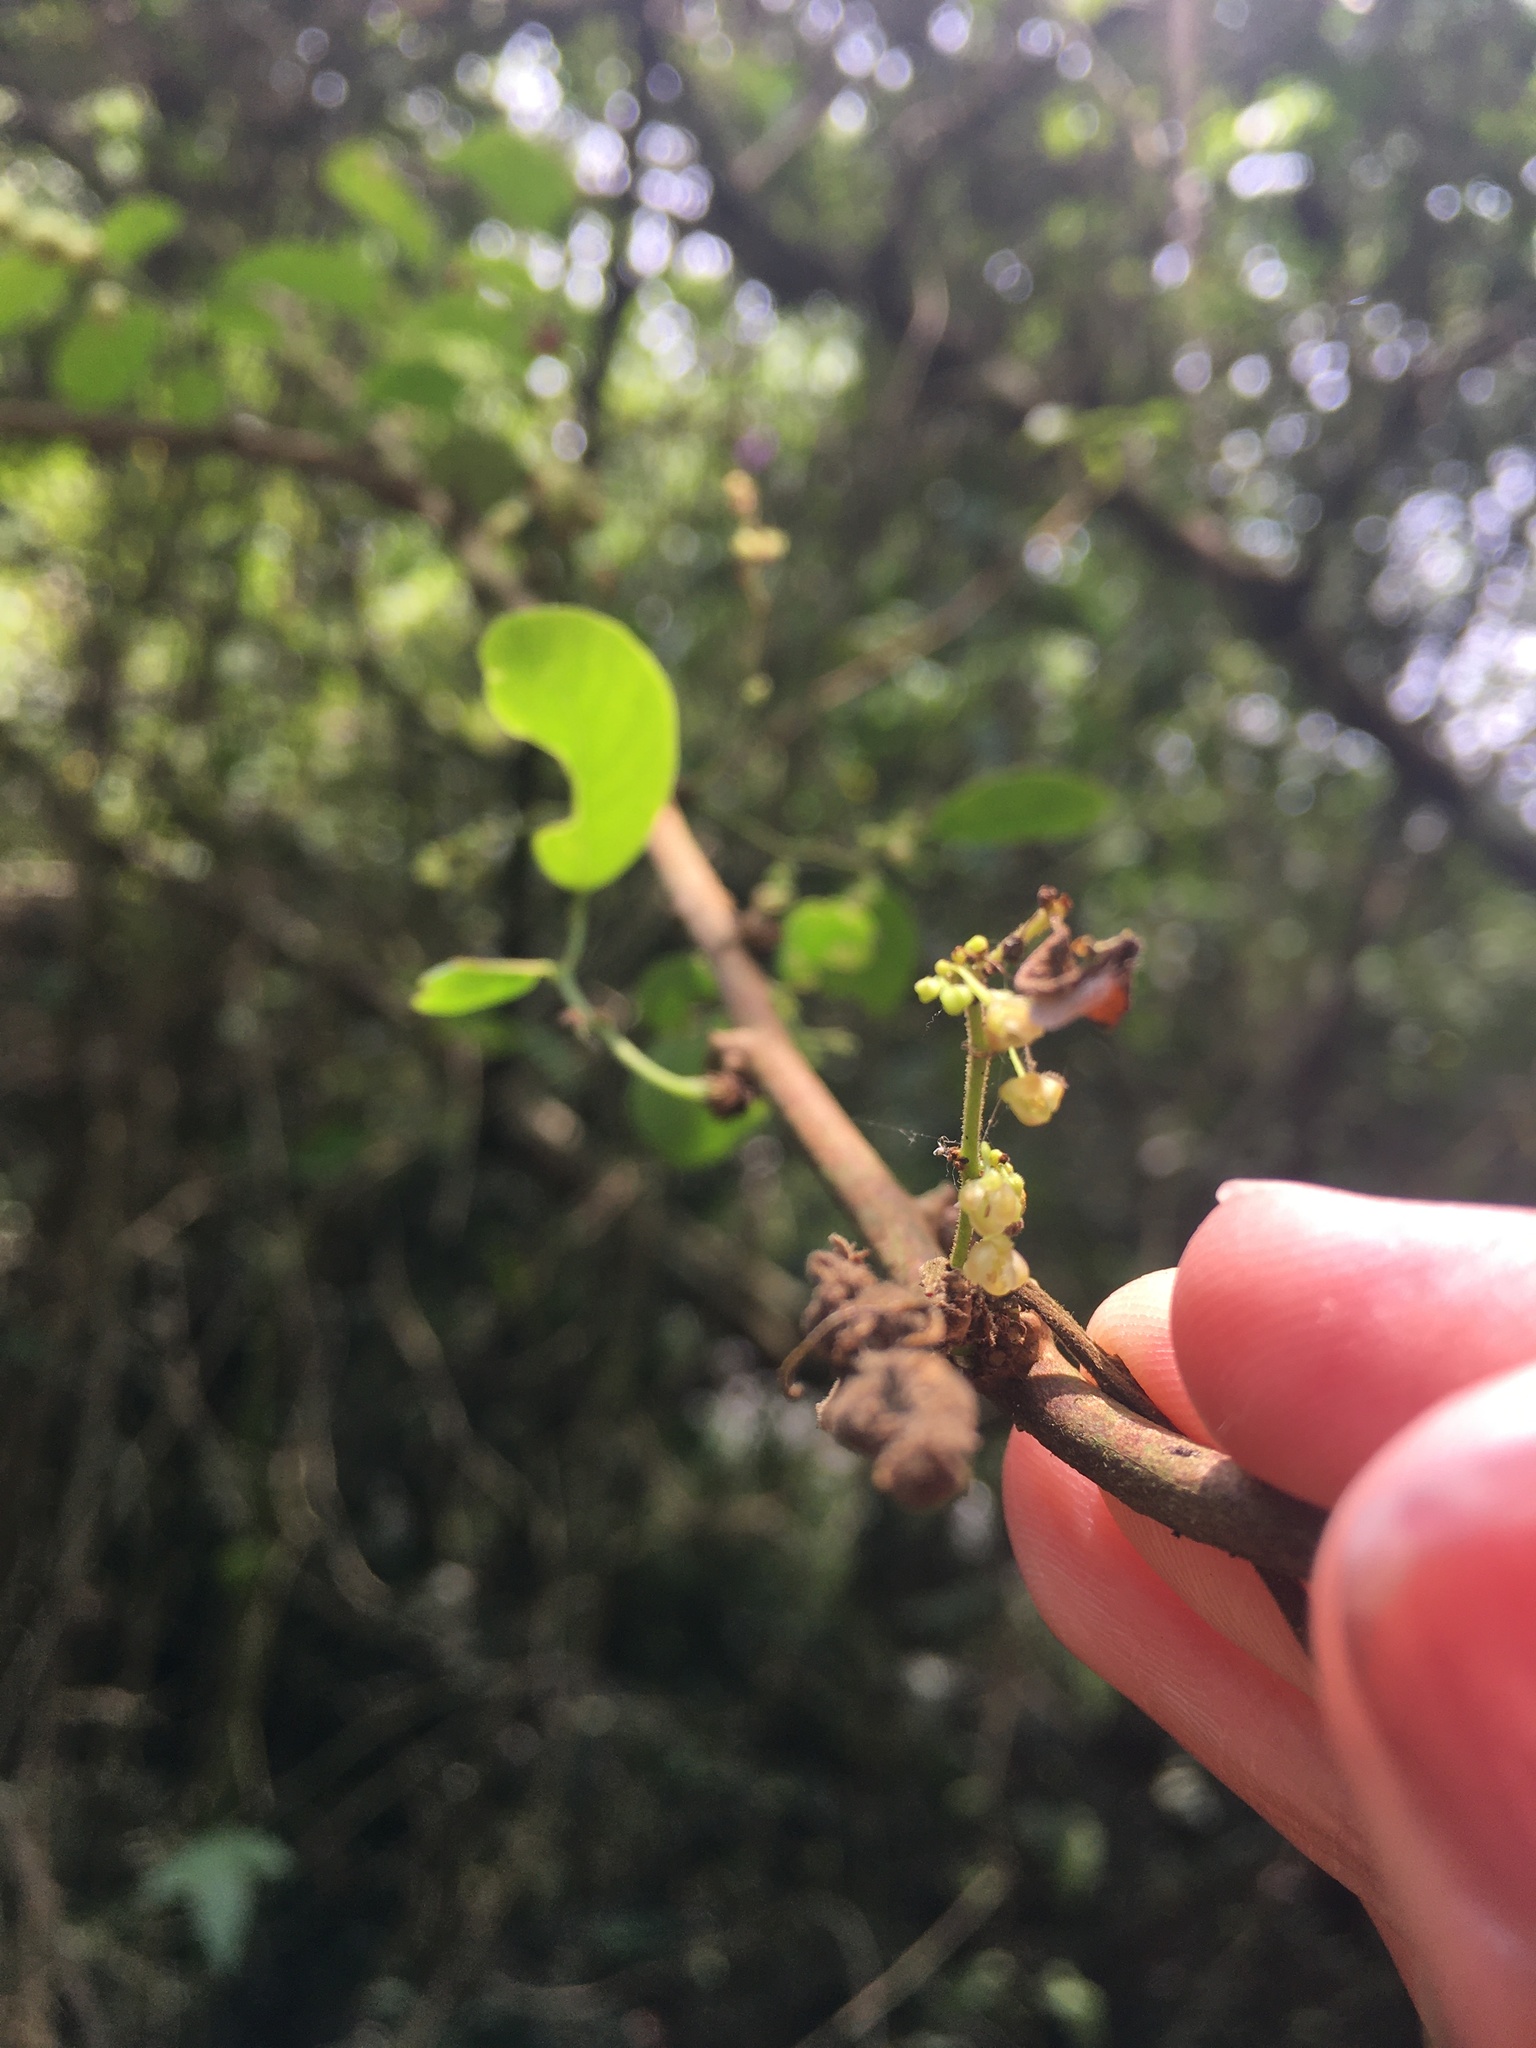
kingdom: Plantae
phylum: Tracheophyta
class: Magnoliopsida
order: Malpighiales
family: Phyllanthaceae
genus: Phyllanthus
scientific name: Phyllanthus reticulatus
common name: Potato bush
